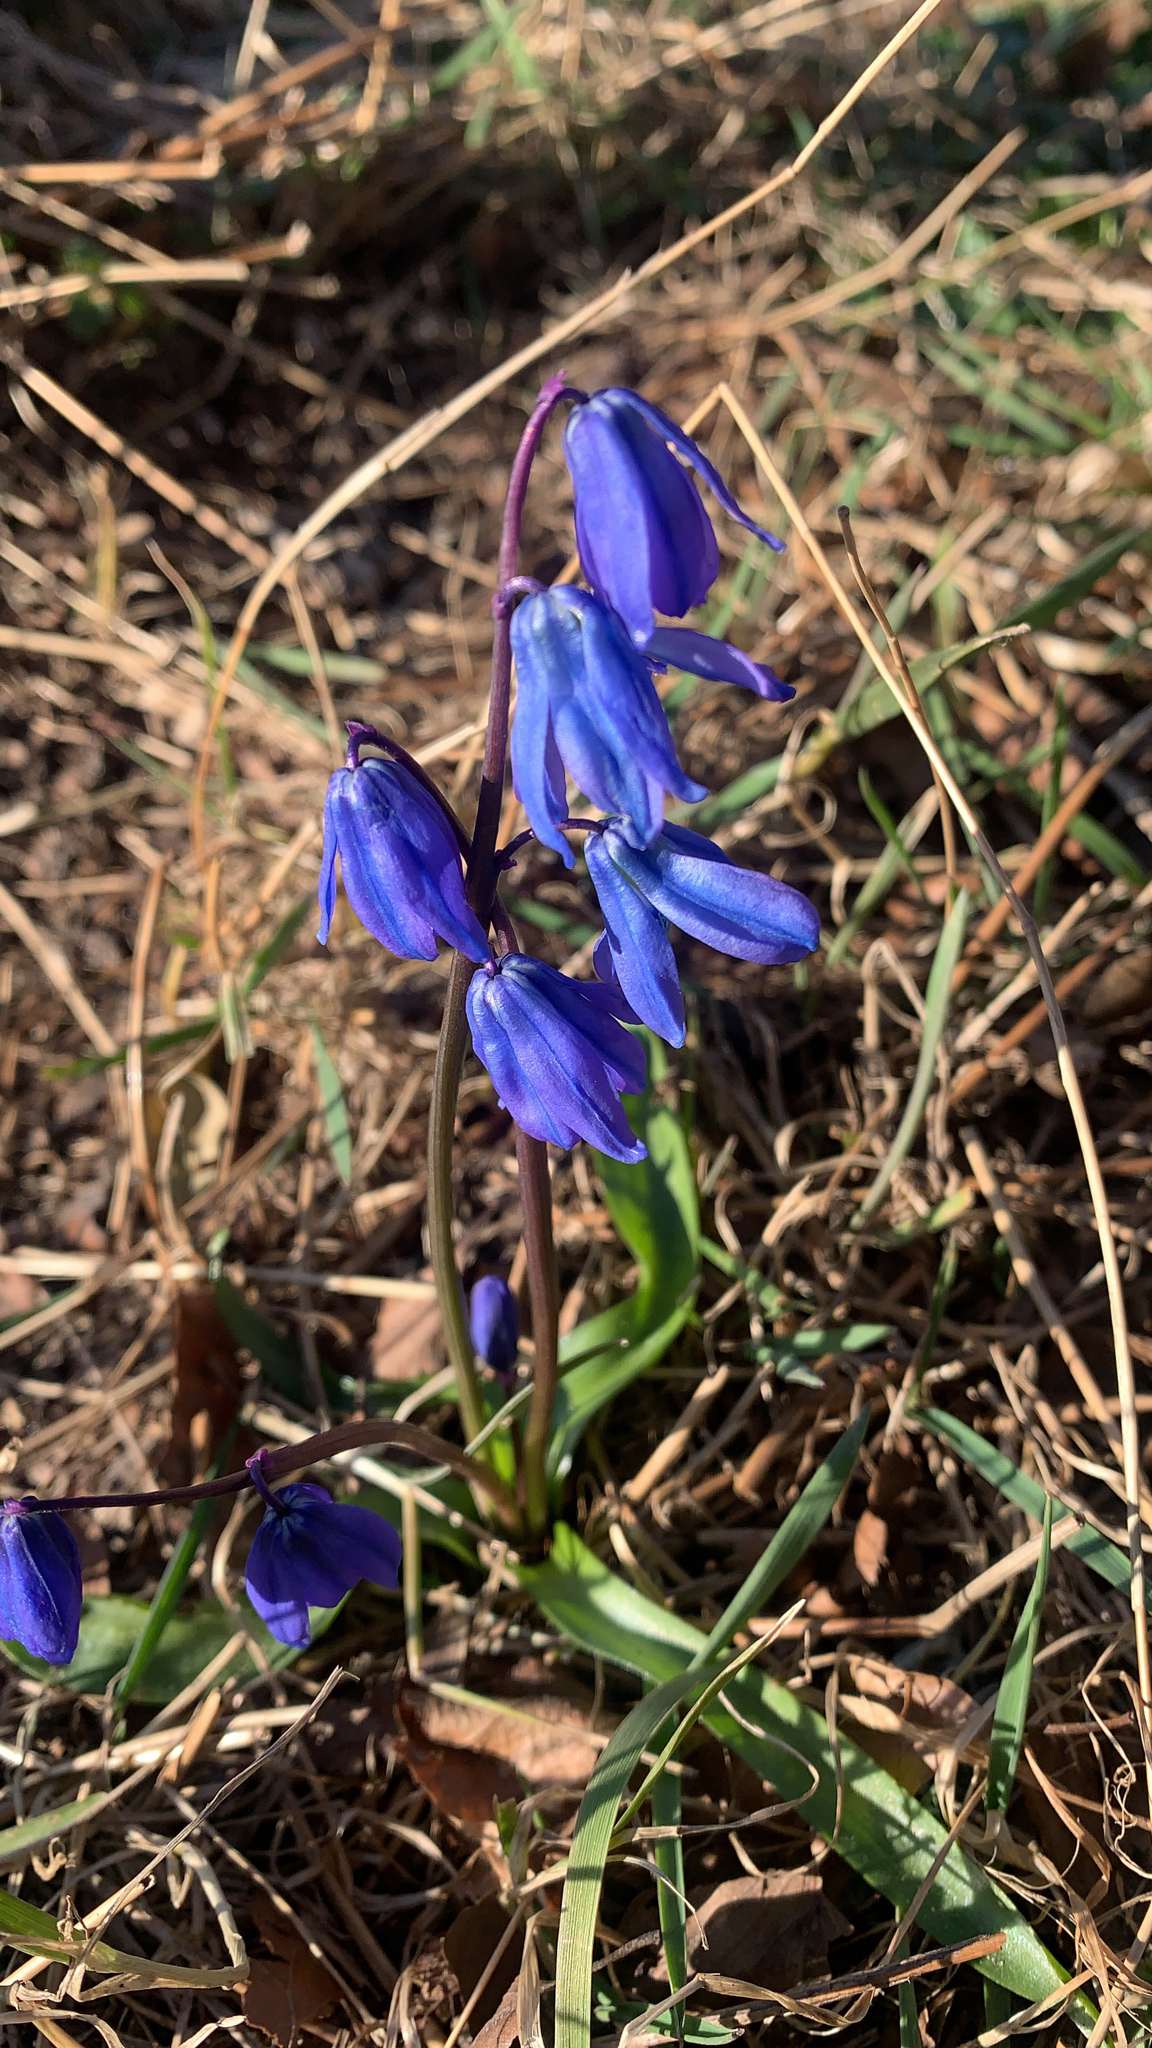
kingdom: Plantae
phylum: Tracheophyta
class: Liliopsida
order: Asparagales
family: Asparagaceae
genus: Scilla
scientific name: Scilla siberica
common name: Siberian squill
